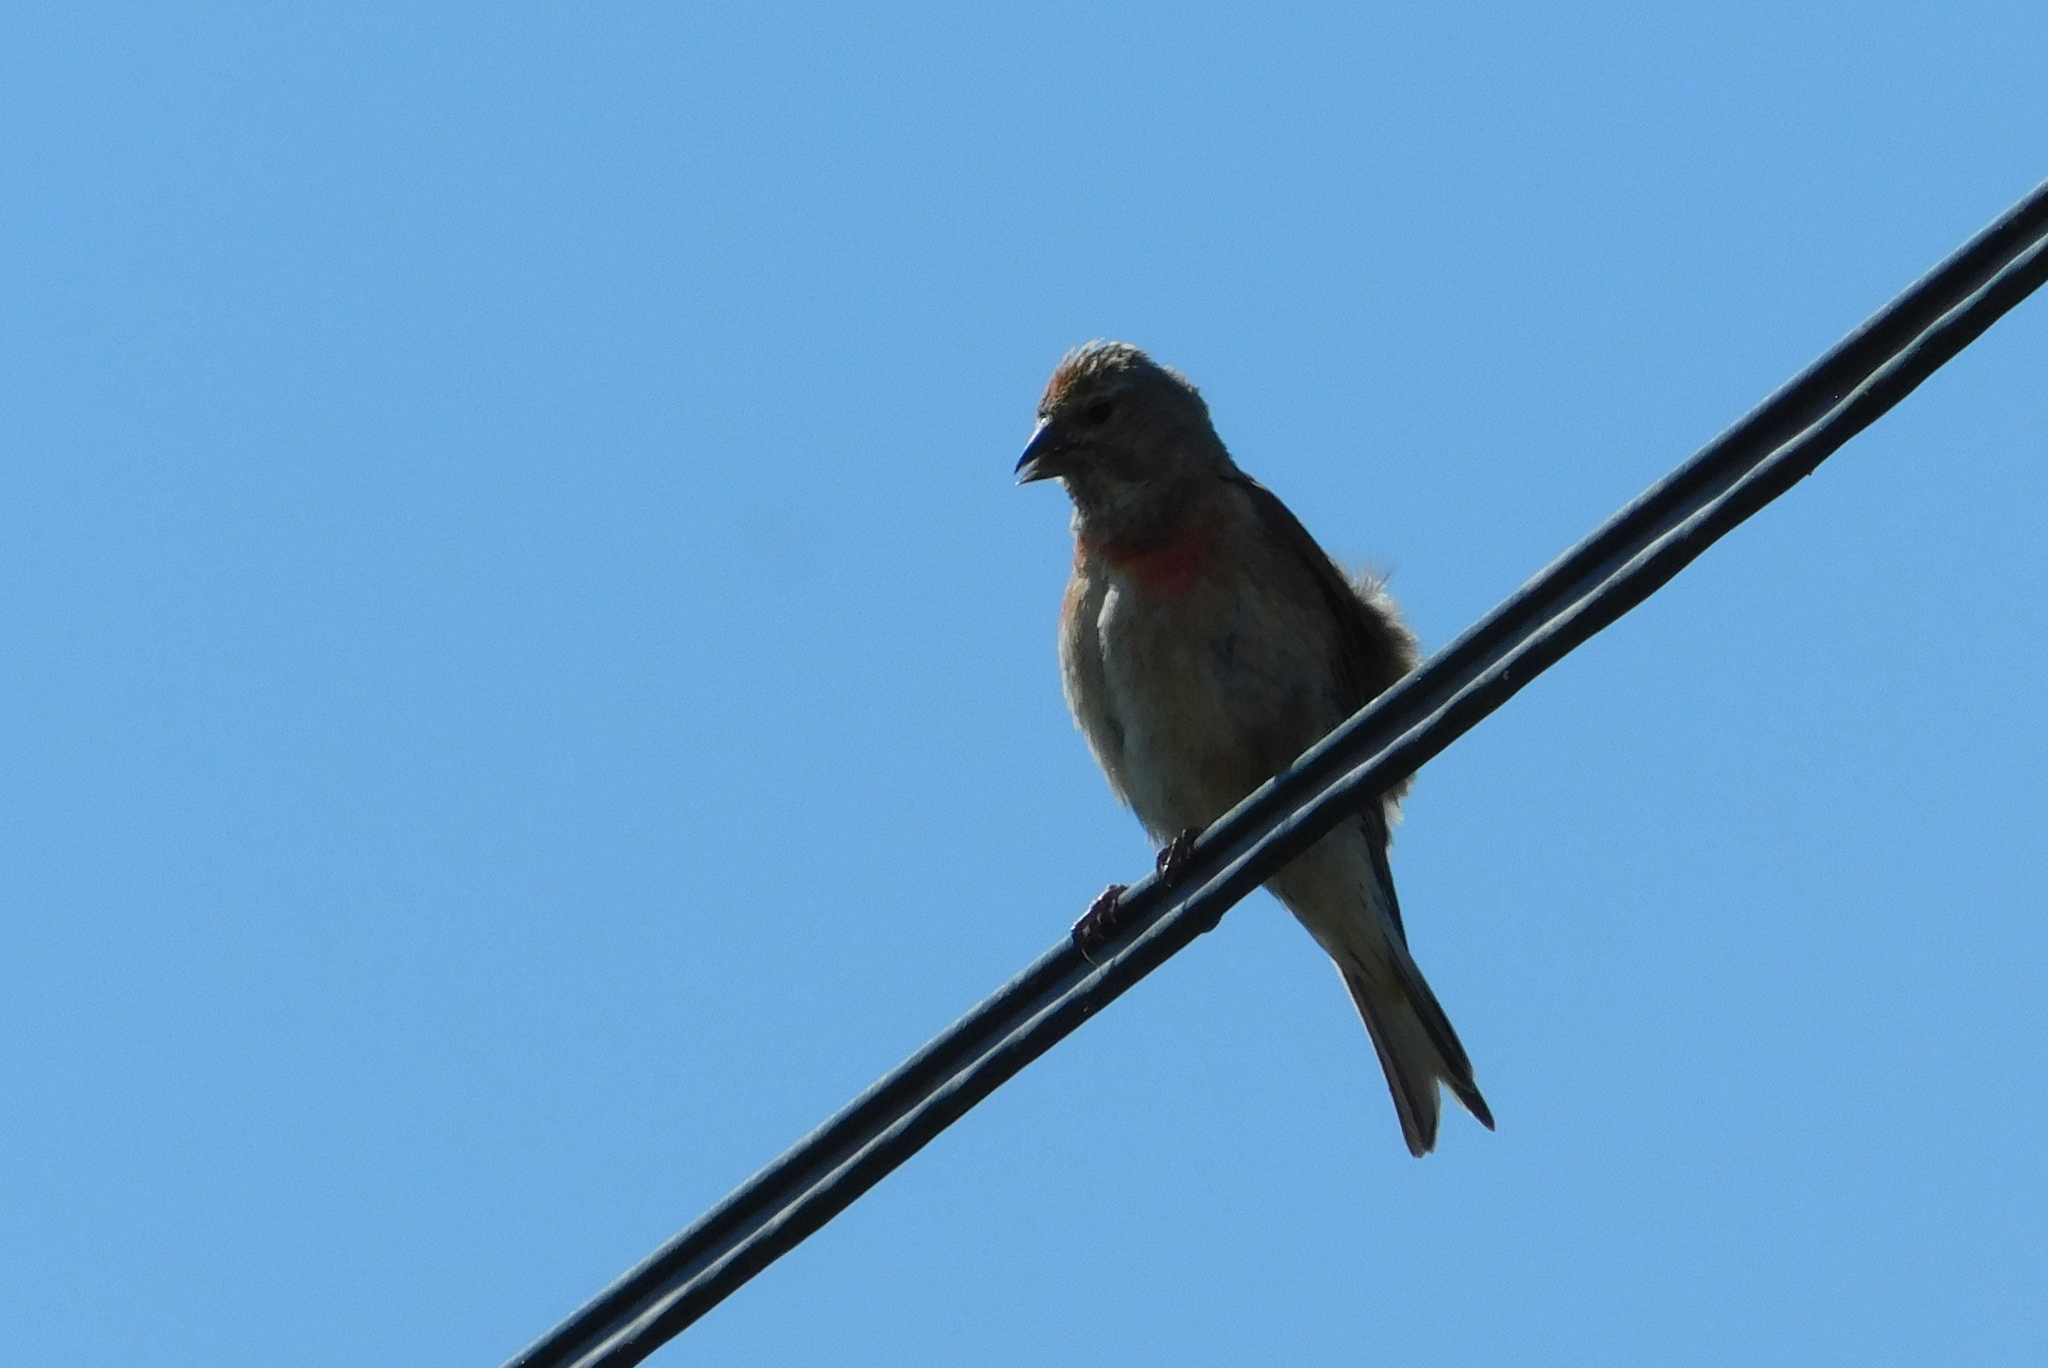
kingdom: Animalia
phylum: Chordata
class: Aves
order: Passeriformes
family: Fringillidae
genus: Linaria
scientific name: Linaria cannabina
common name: Common linnet
